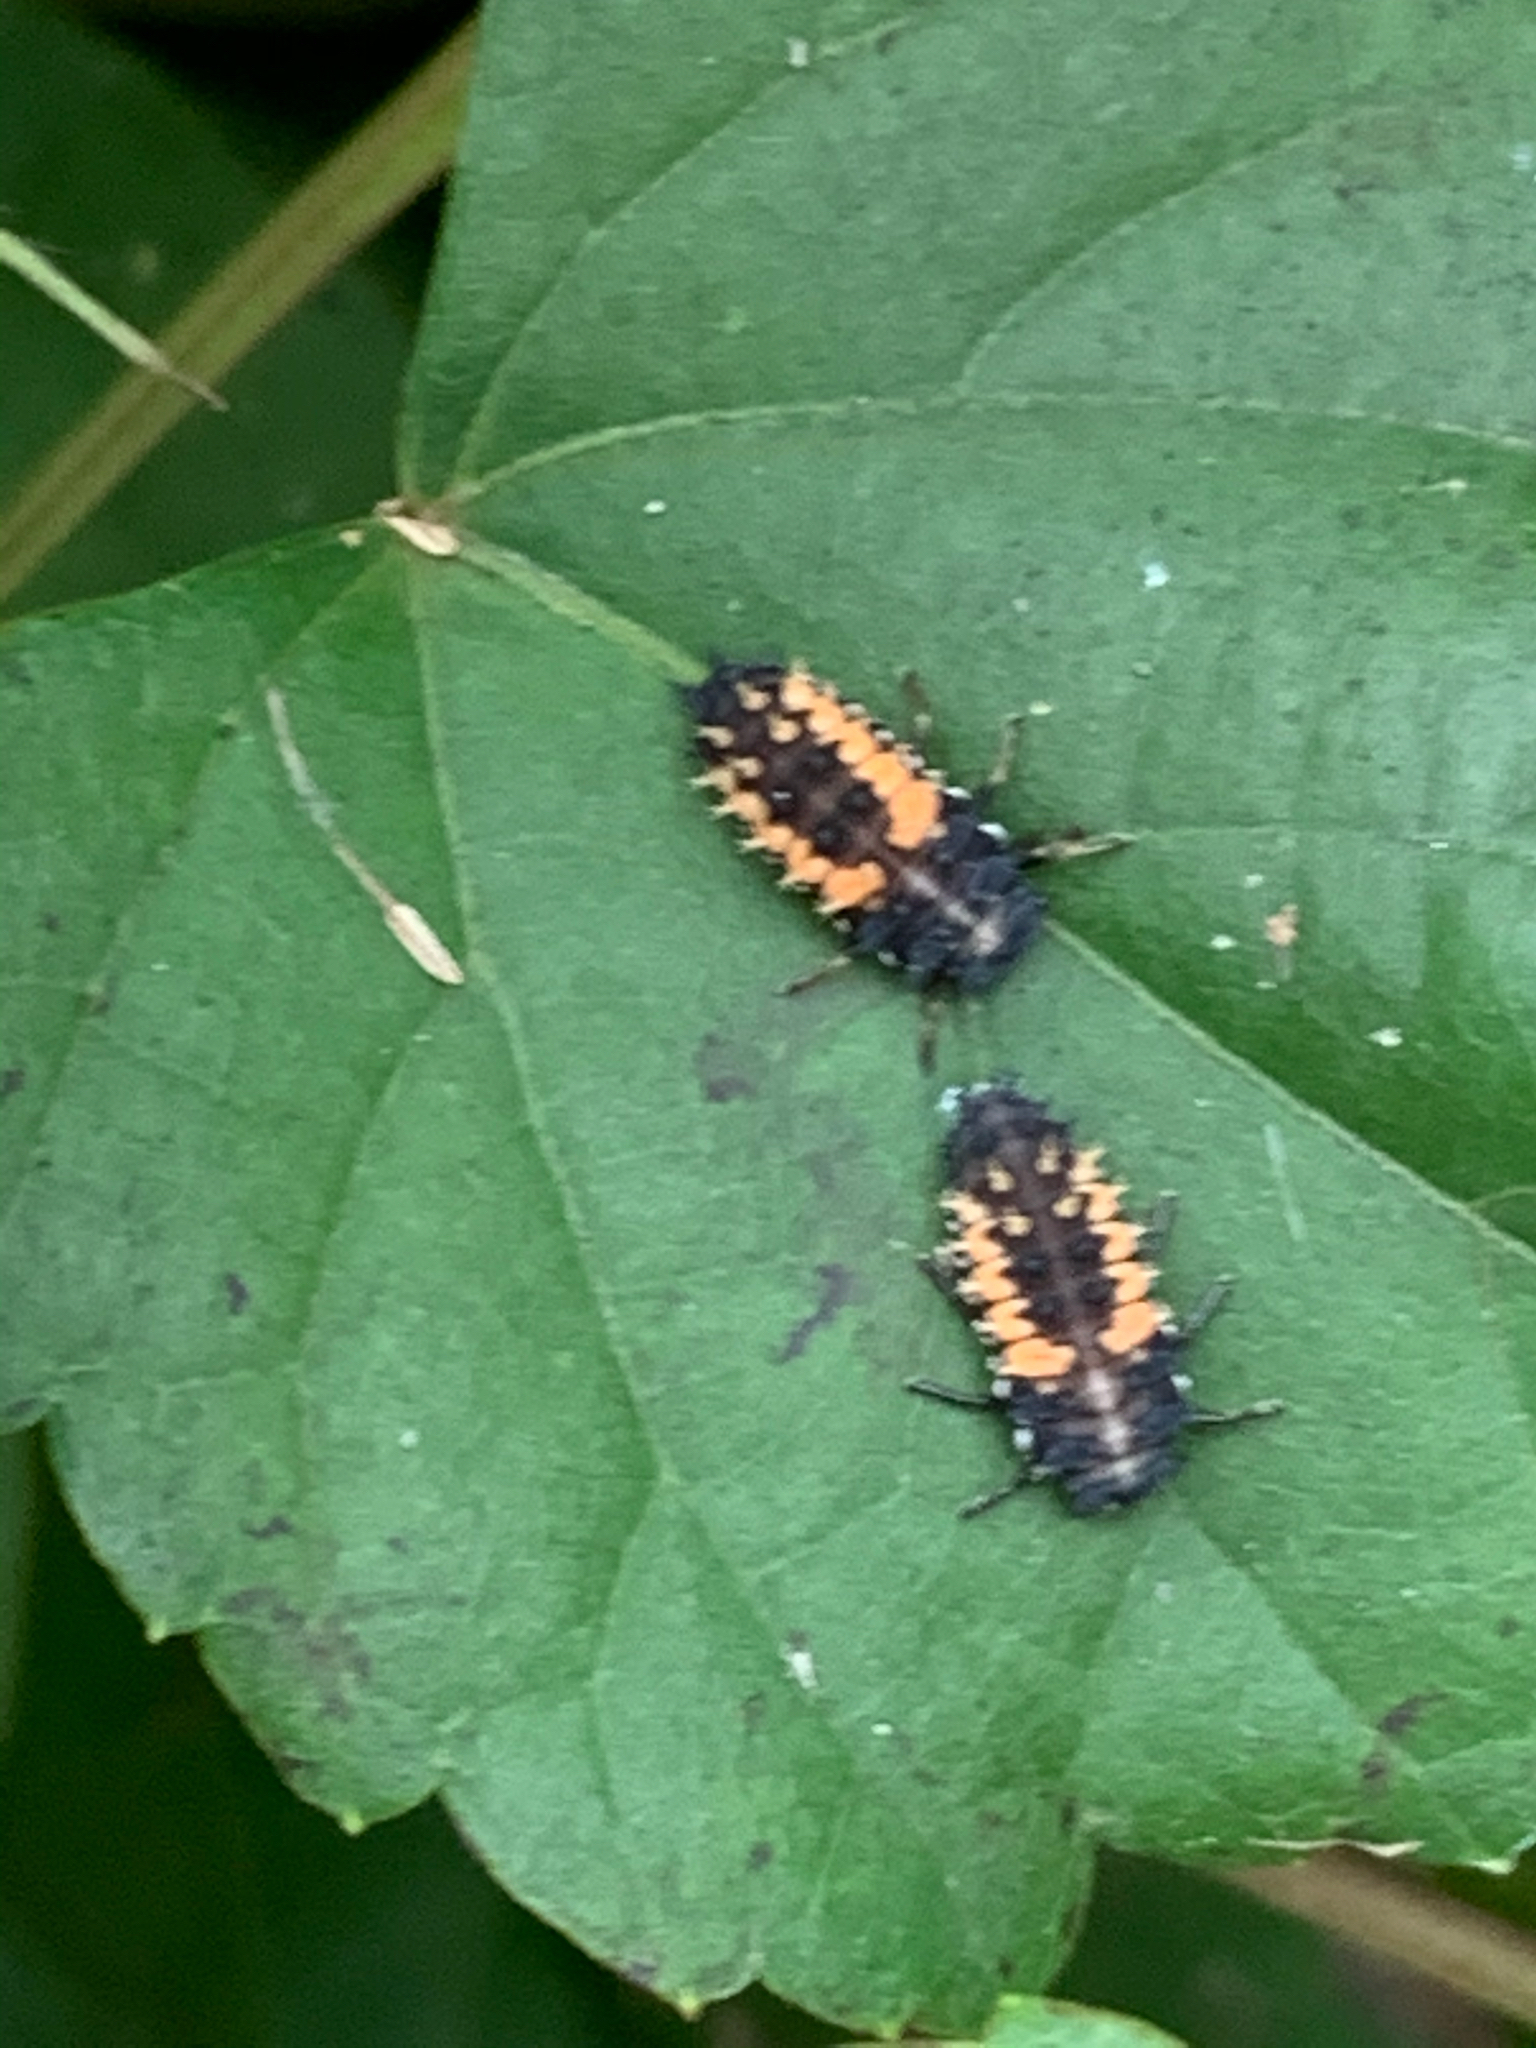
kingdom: Animalia
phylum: Arthropoda
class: Insecta
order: Coleoptera
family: Coccinellidae
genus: Harmonia
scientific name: Harmonia axyridis
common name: Harlequin ladybird
